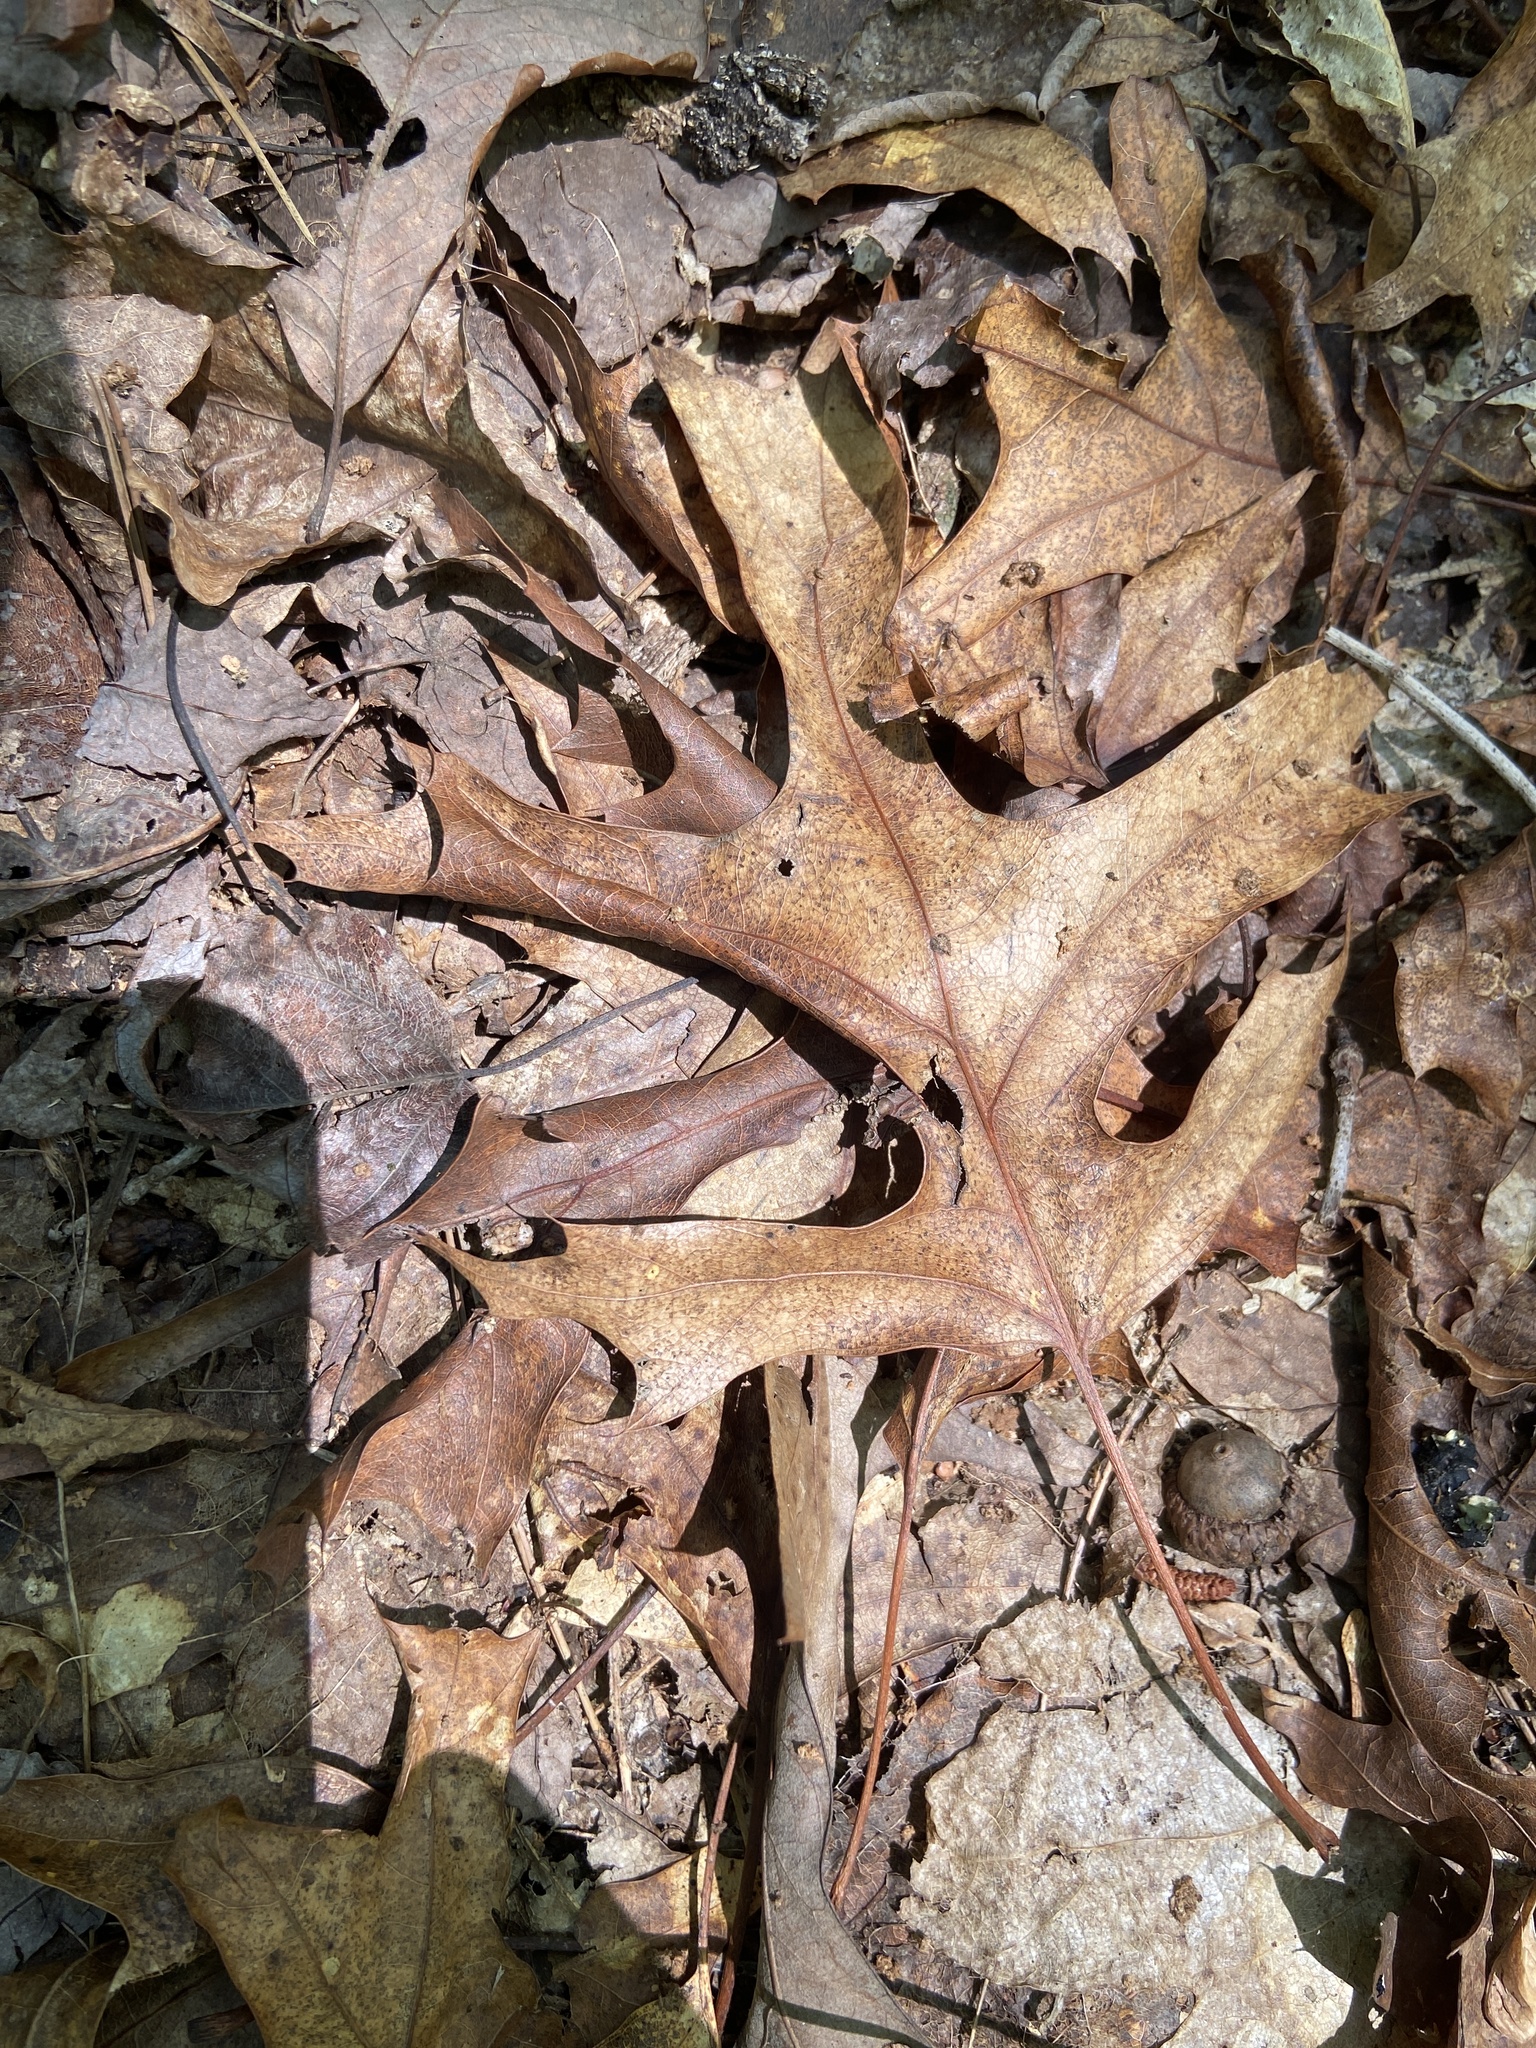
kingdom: Plantae
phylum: Tracheophyta
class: Magnoliopsida
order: Fagales
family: Fagaceae
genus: Quercus
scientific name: Quercus coccinea
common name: Scarlet oak
